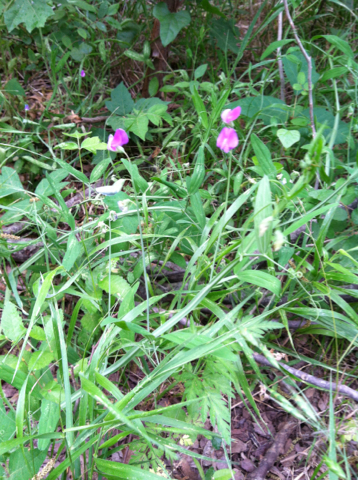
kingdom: Plantae
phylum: Tracheophyta
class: Magnoliopsida
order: Fabales
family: Fabaceae
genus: Lathyrus
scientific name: Lathyrus hirsutus
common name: Hairy vetchling
